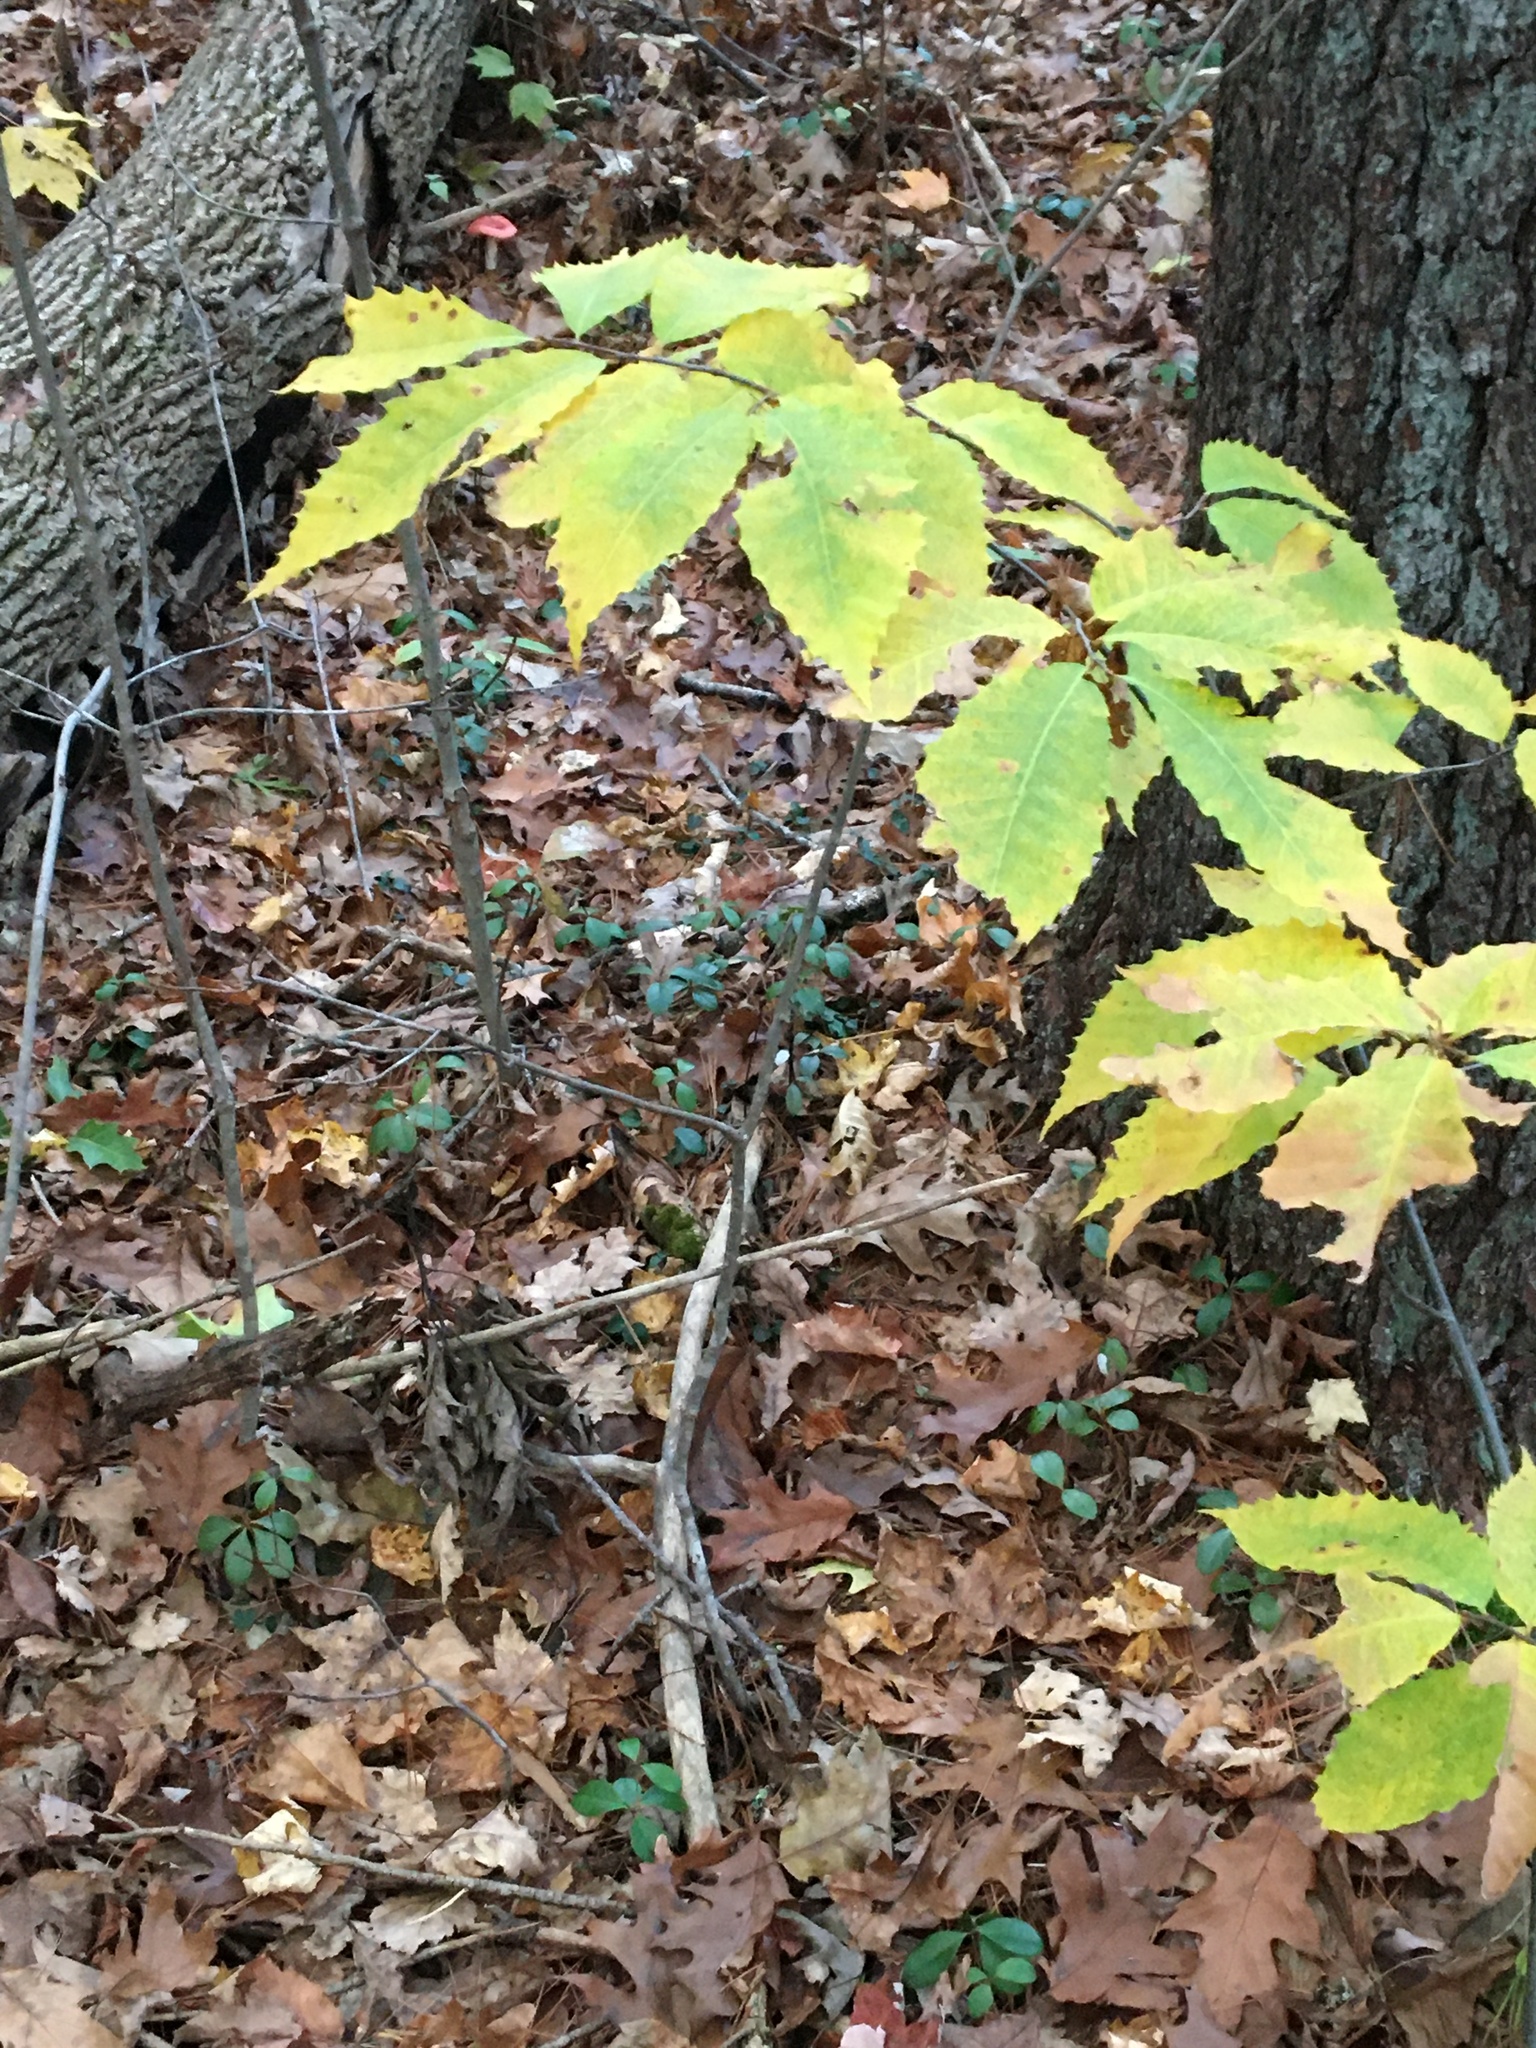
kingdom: Plantae
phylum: Tracheophyta
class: Magnoliopsida
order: Fagales
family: Fagaceae
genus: Castanea
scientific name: Castanea dentata
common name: American chestnut
